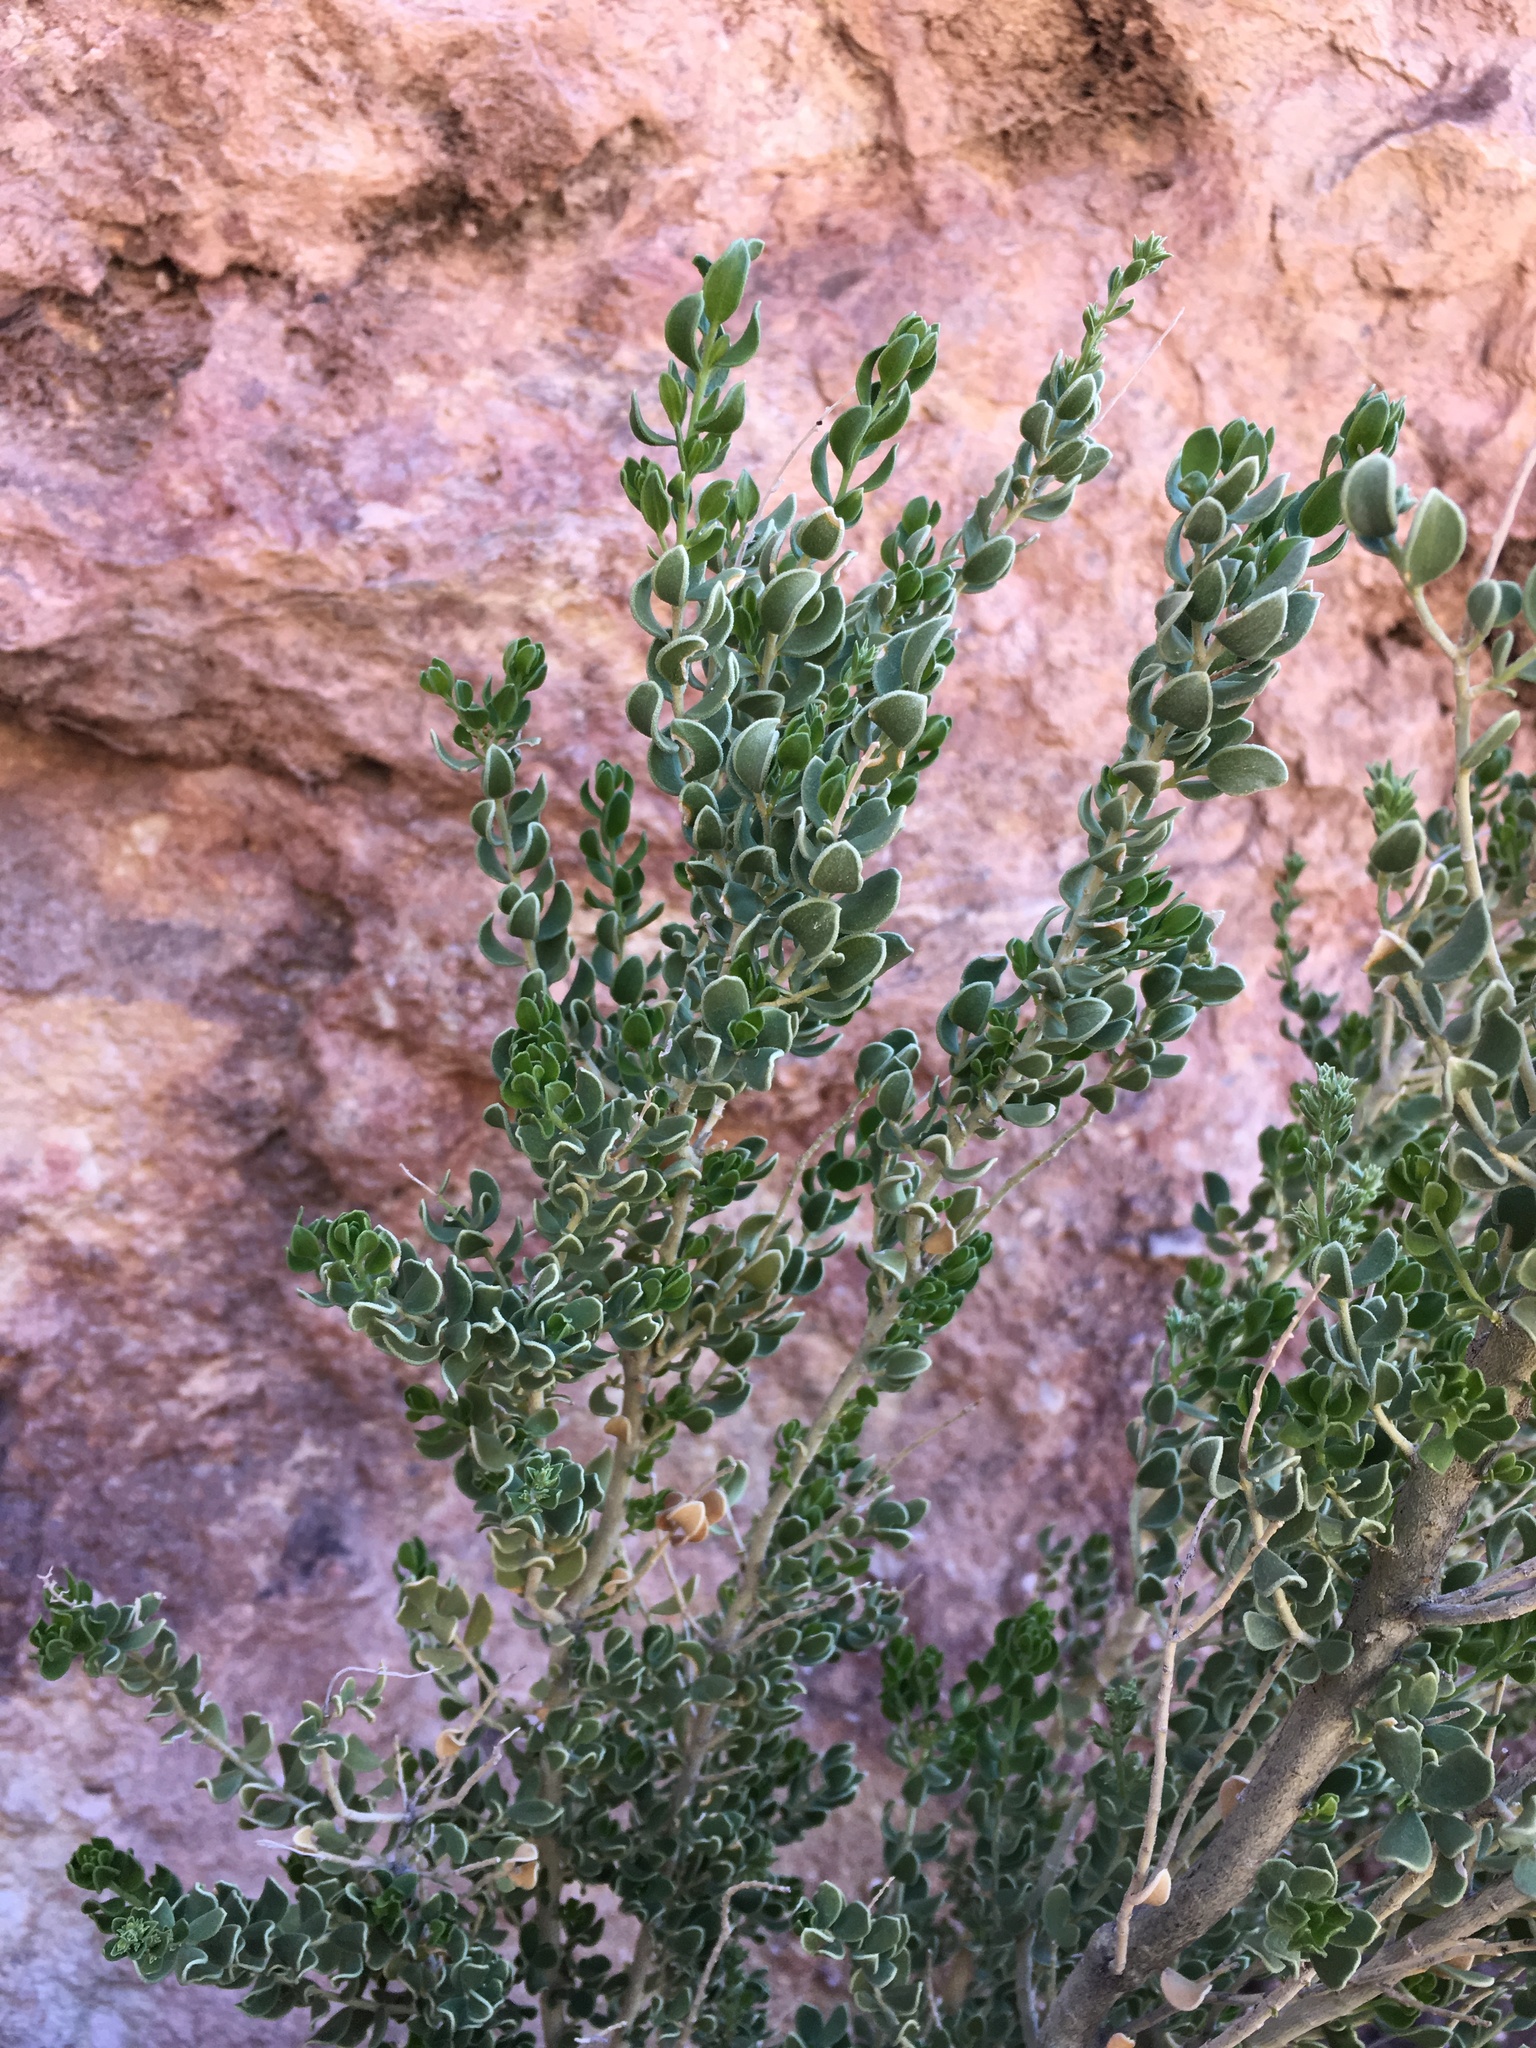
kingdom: Plantae
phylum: Tracheophyta
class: Magnoliopsida
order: Celastrales
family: Celastraceae
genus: Mortonia
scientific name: Mortonia utahensis
